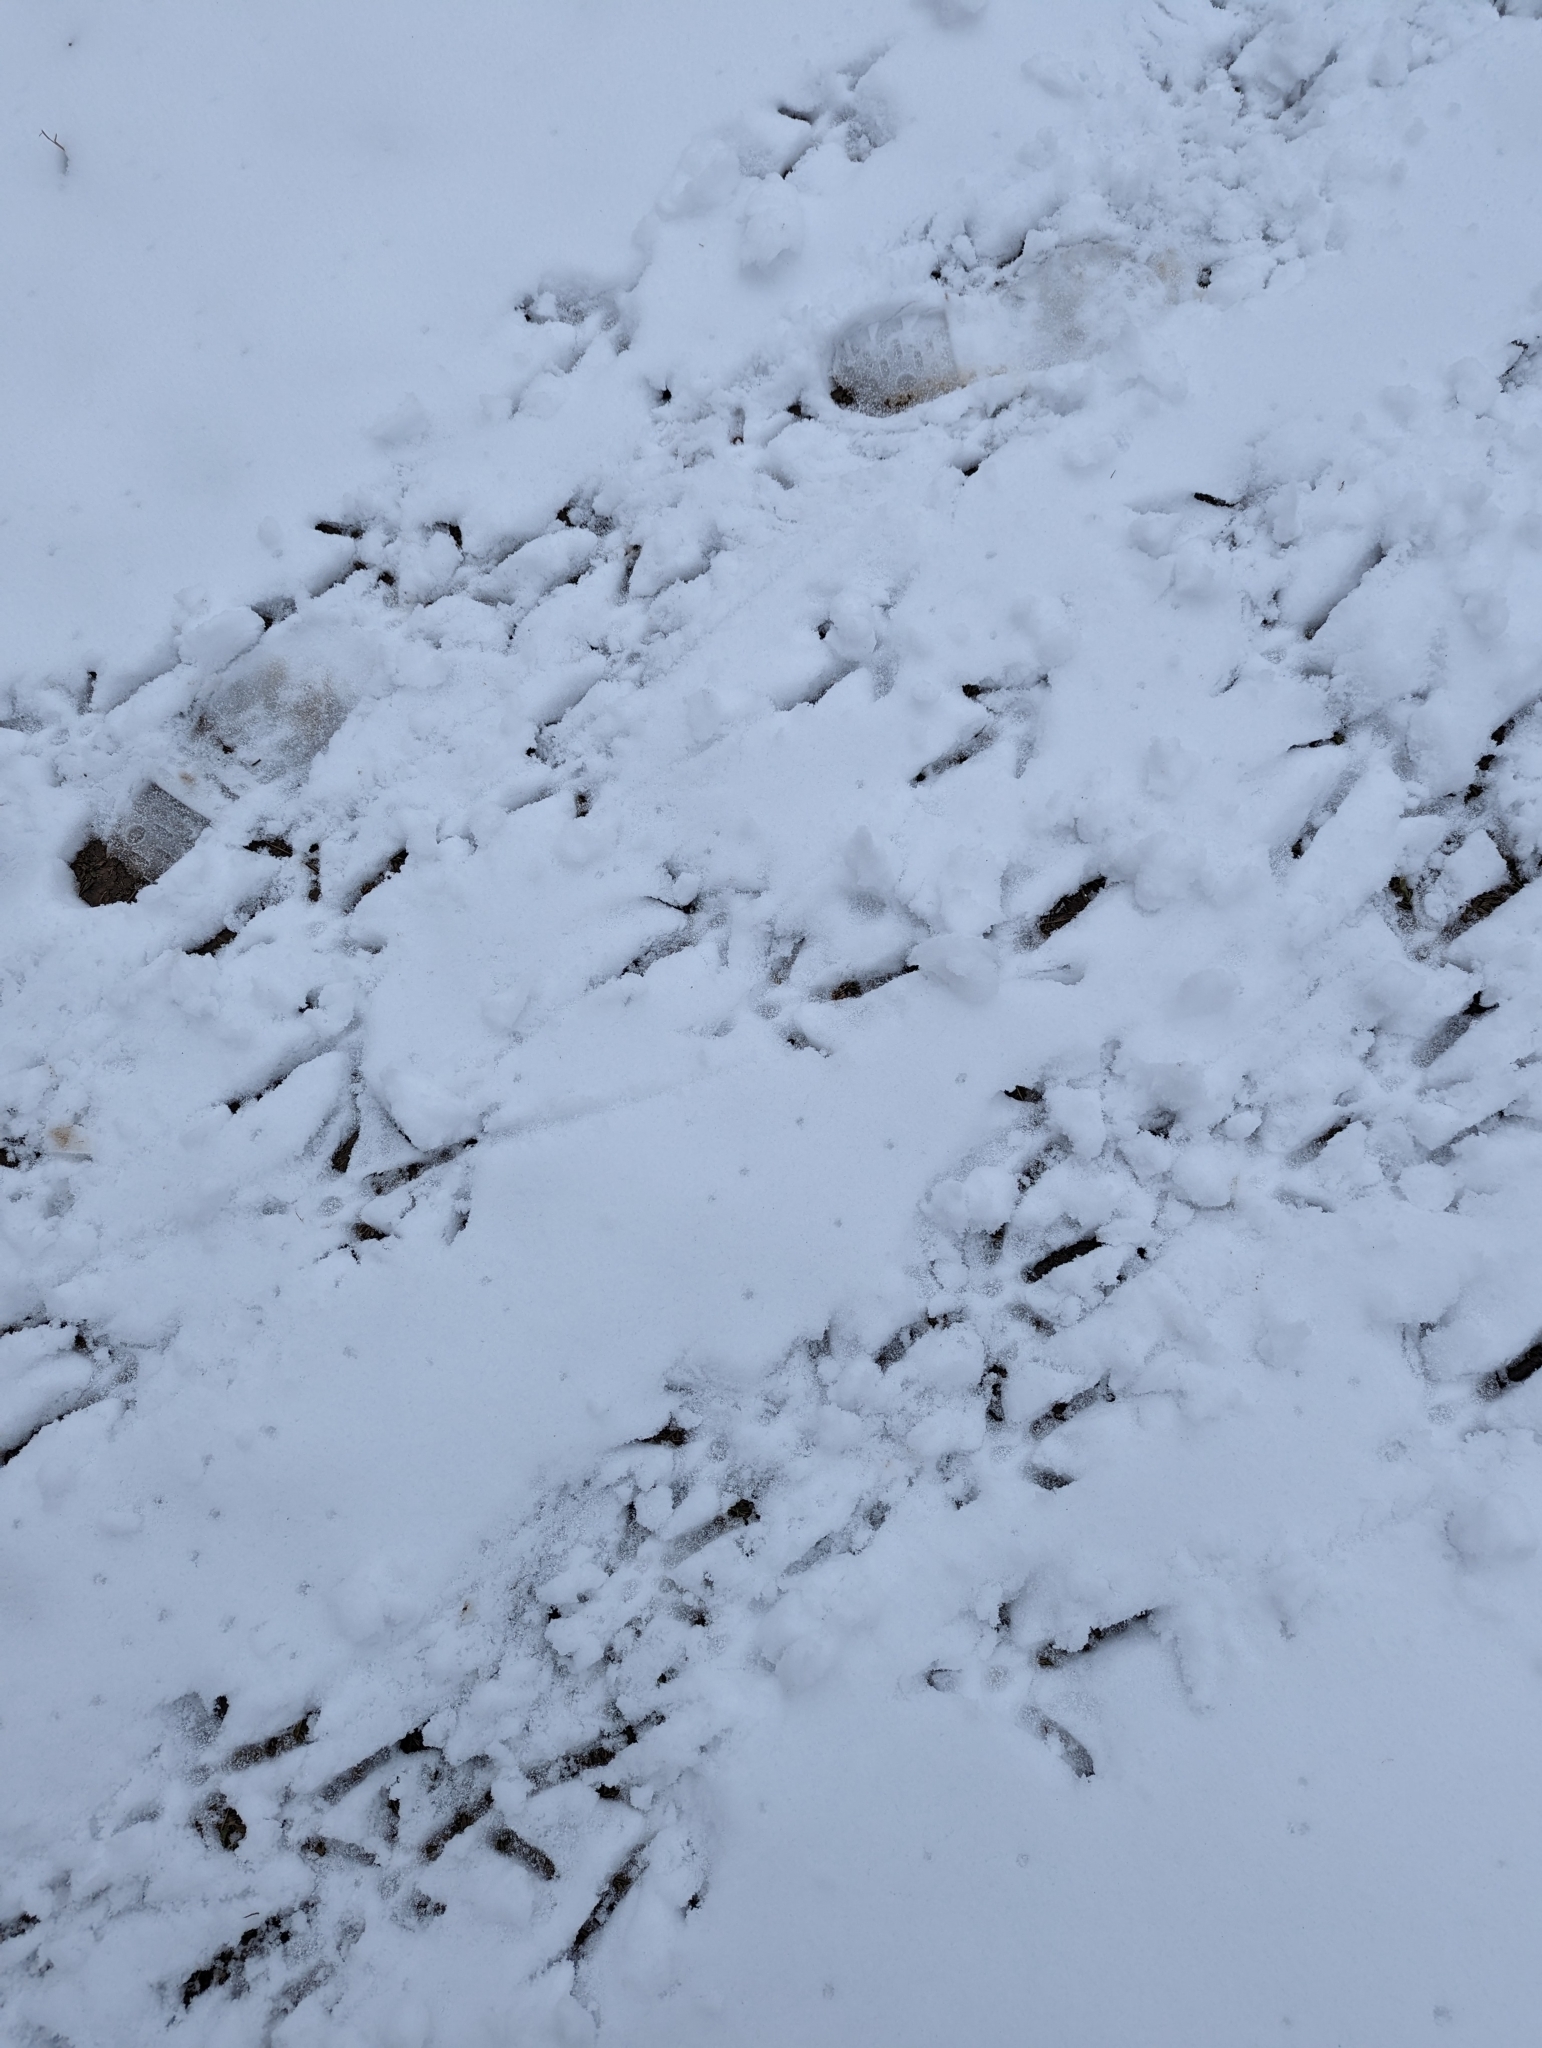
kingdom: Animalia
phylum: Chordata
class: Aves
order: Galliformes
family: Phasianidae
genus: Meleagris
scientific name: Meleagris gallopavo
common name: Wild turkey
